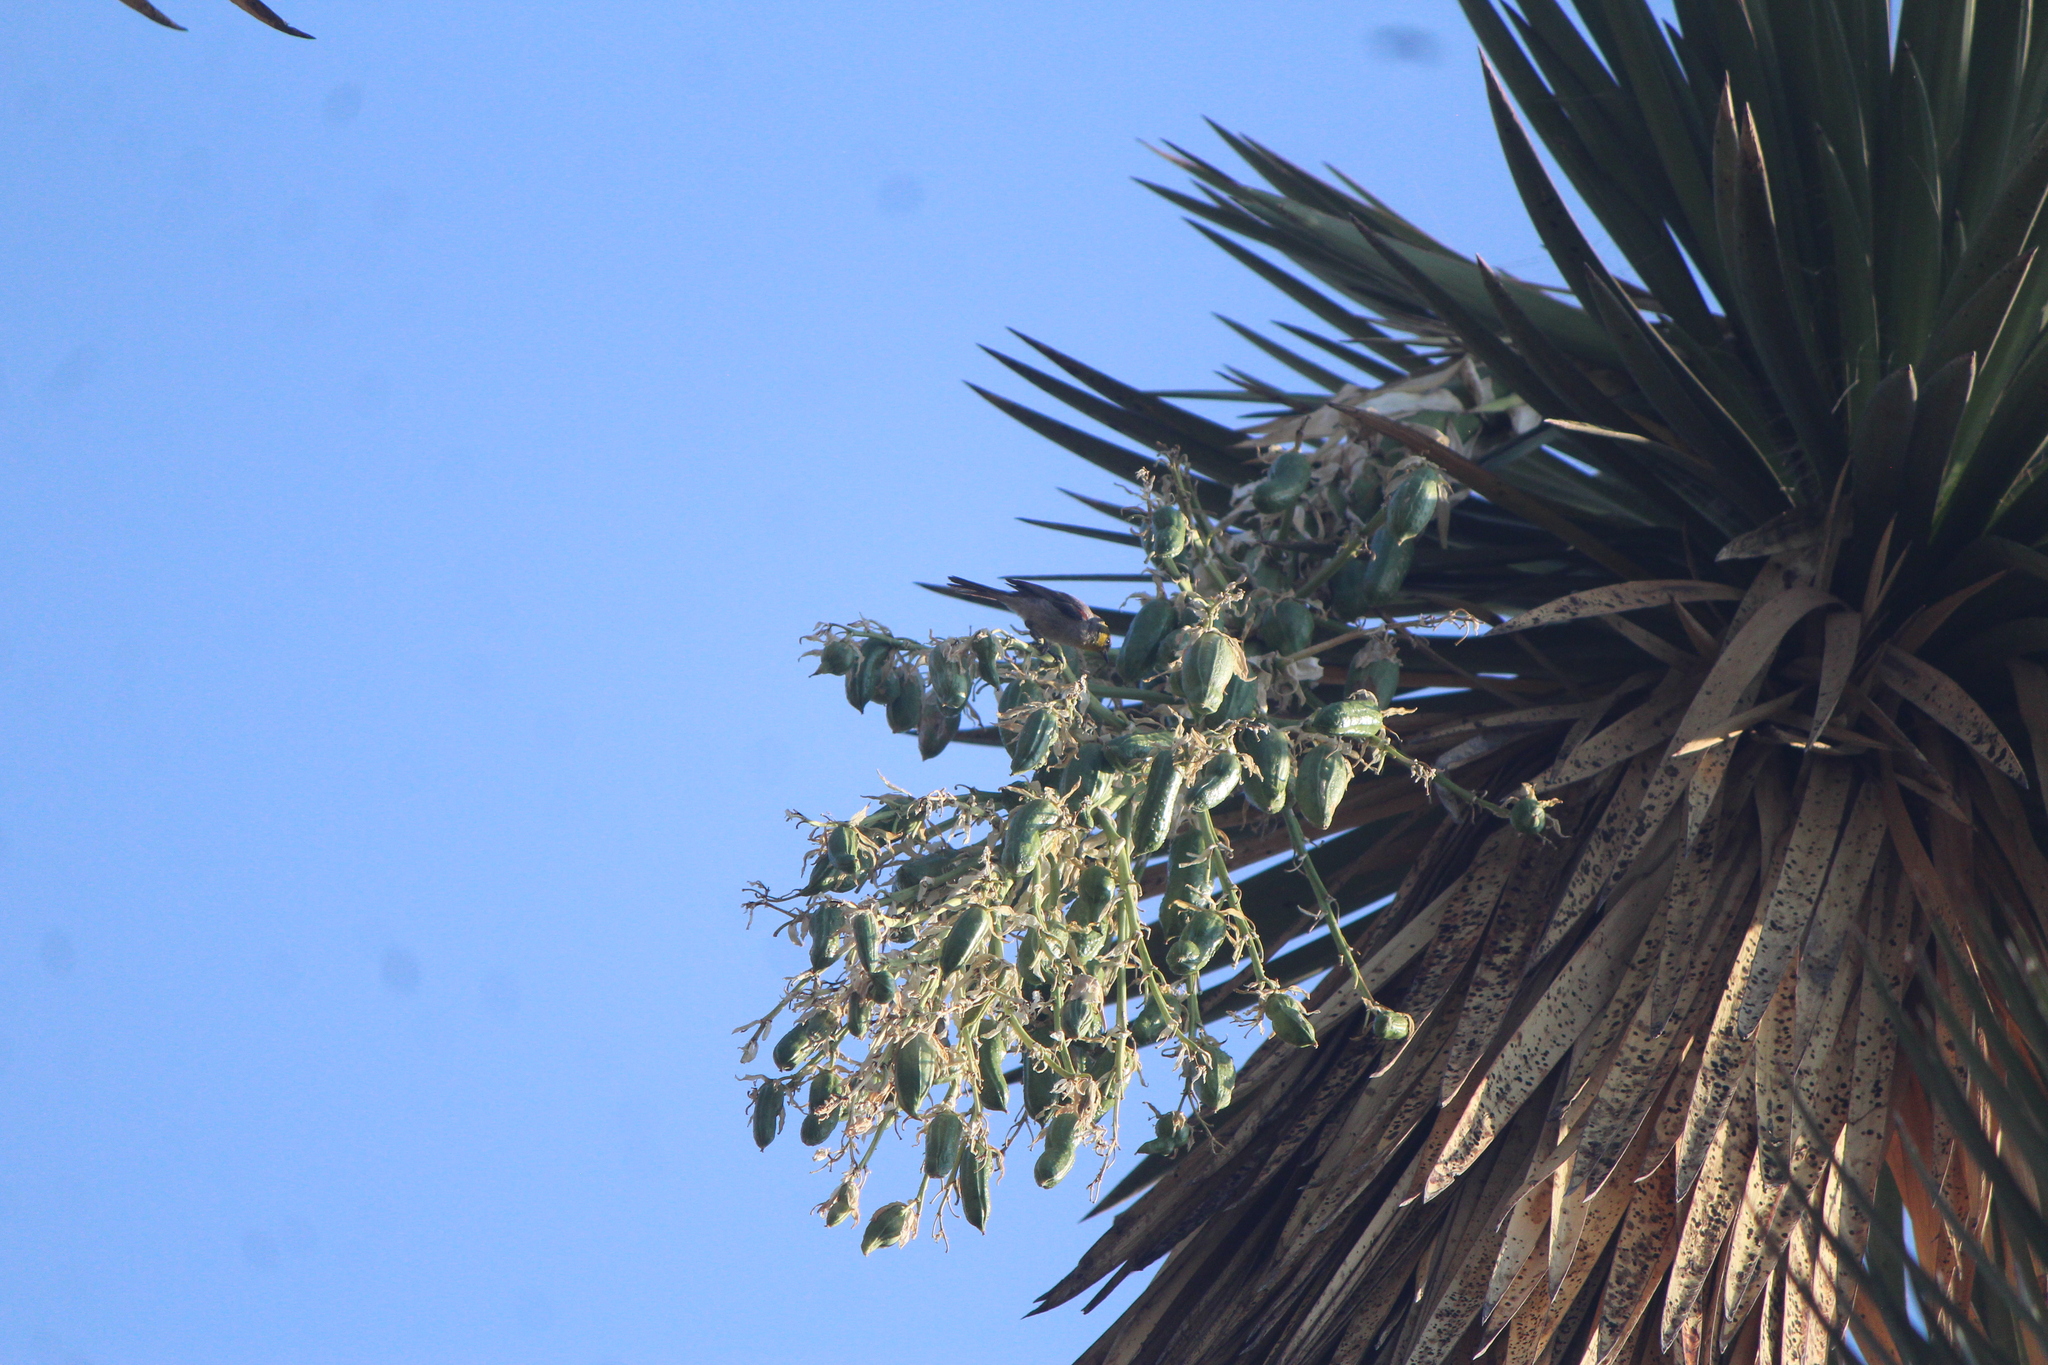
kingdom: Animalia
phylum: Chordata
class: Aves
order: Passeriformes
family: Remizidae
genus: Auriparus
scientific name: Auriparus flaviceps
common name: Verdin
